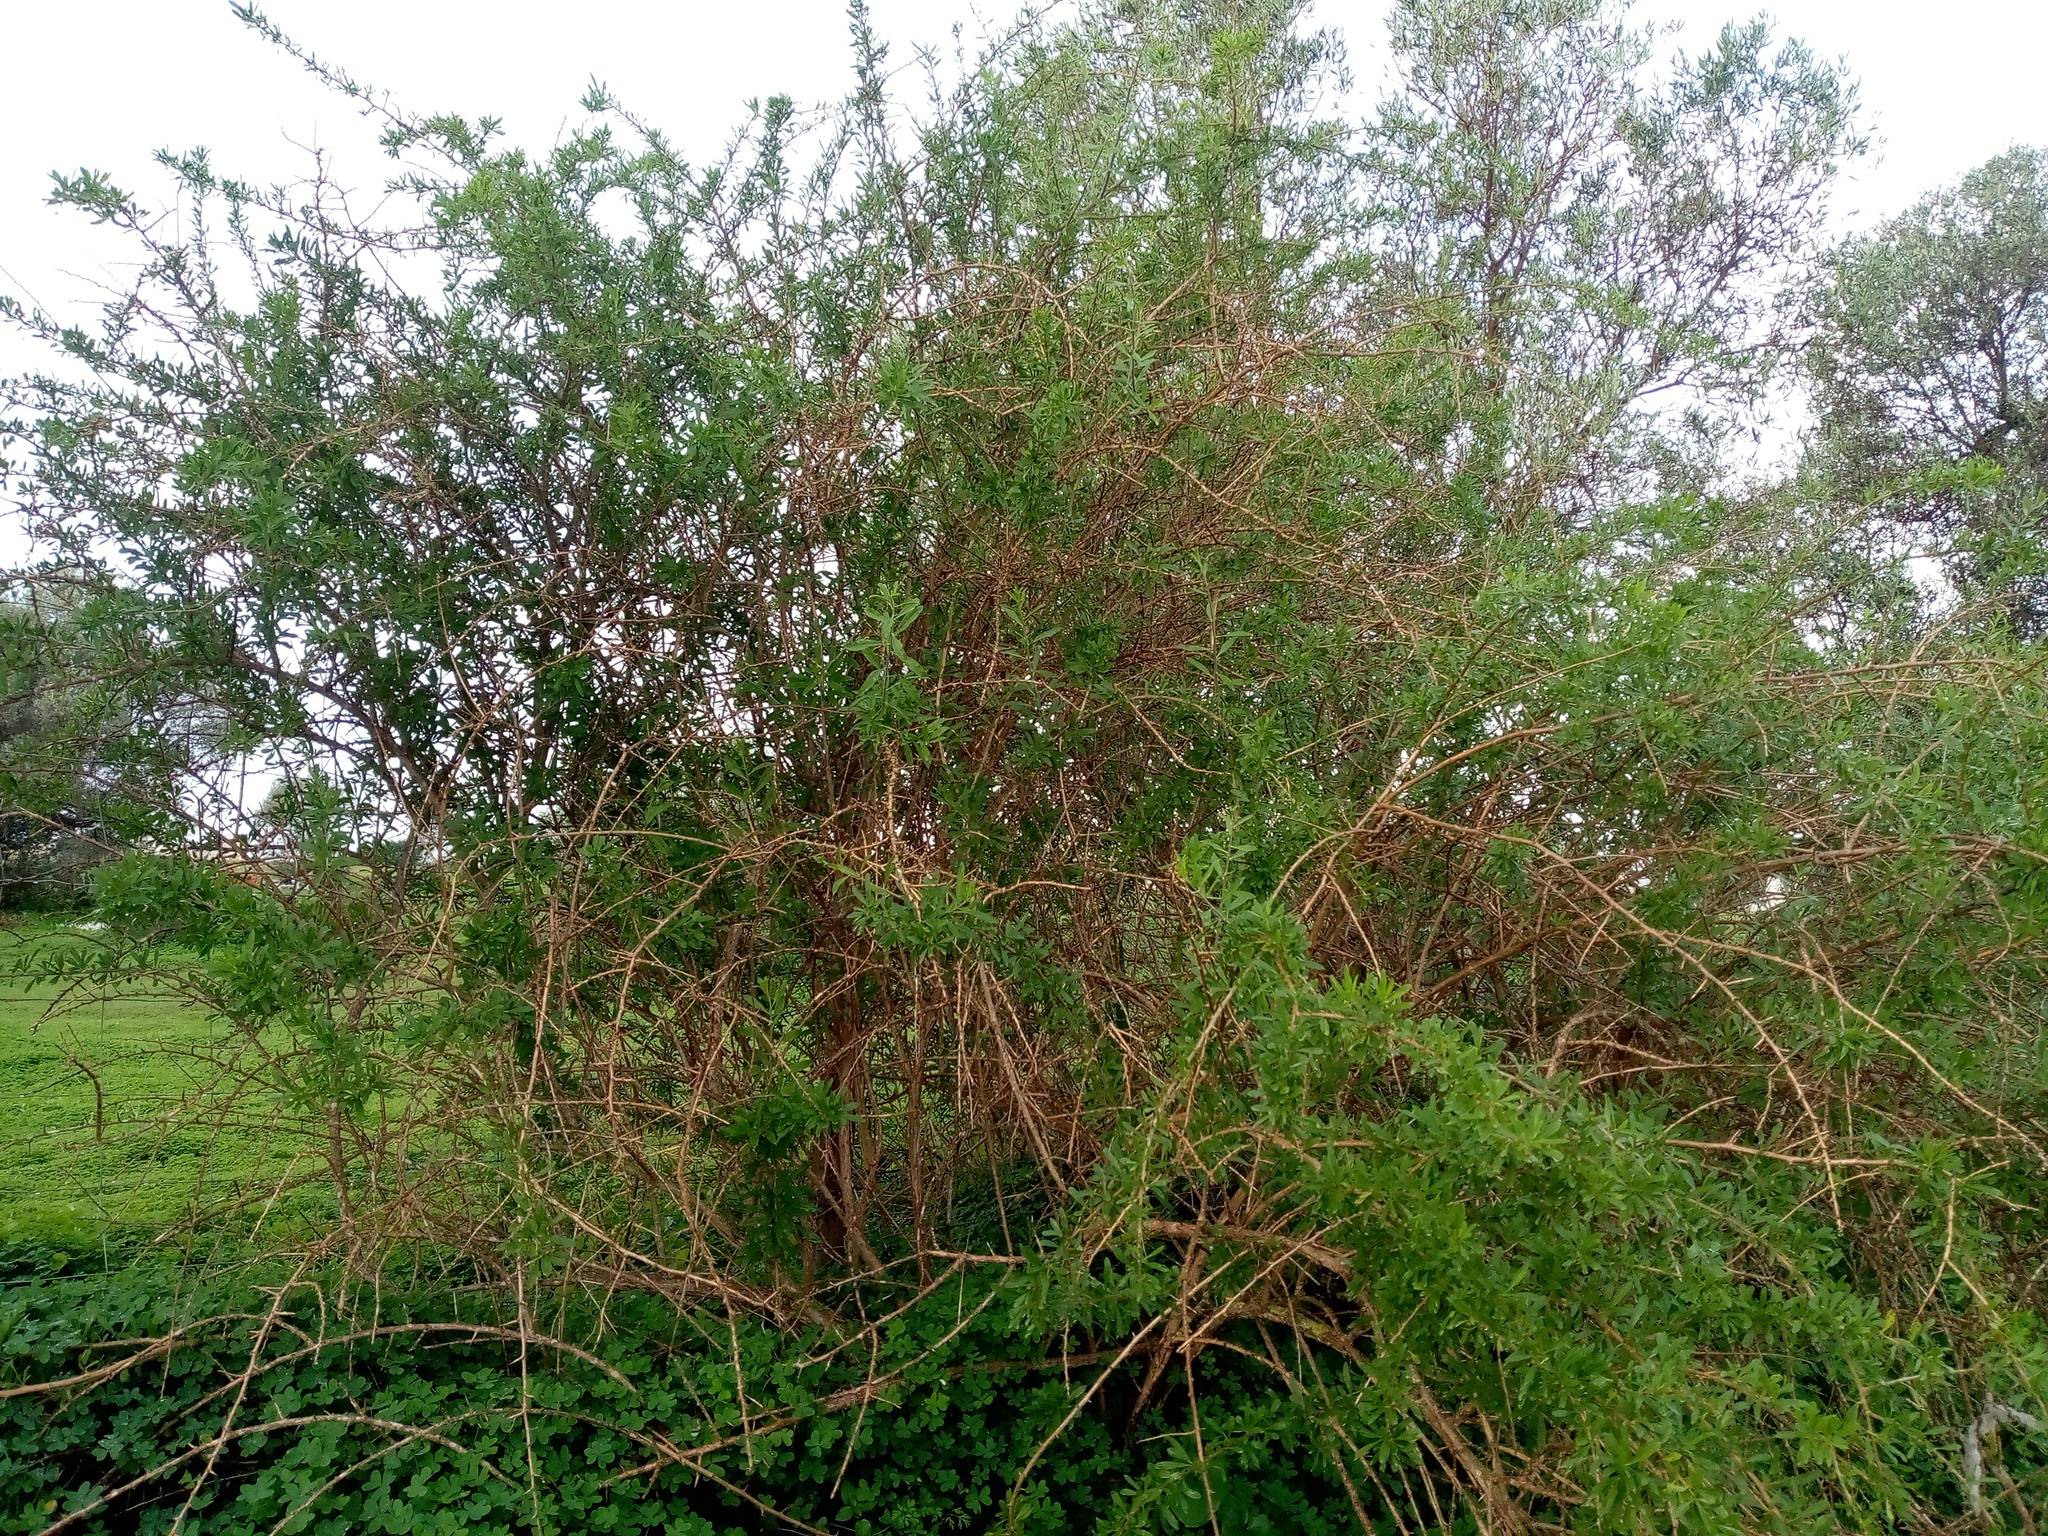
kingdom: Plantae
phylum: Tracheophyta
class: Magnoliopsida
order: Solanales
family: Solanaceae
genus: Lycium
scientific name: Lycium europaeum
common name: Boxthorn
